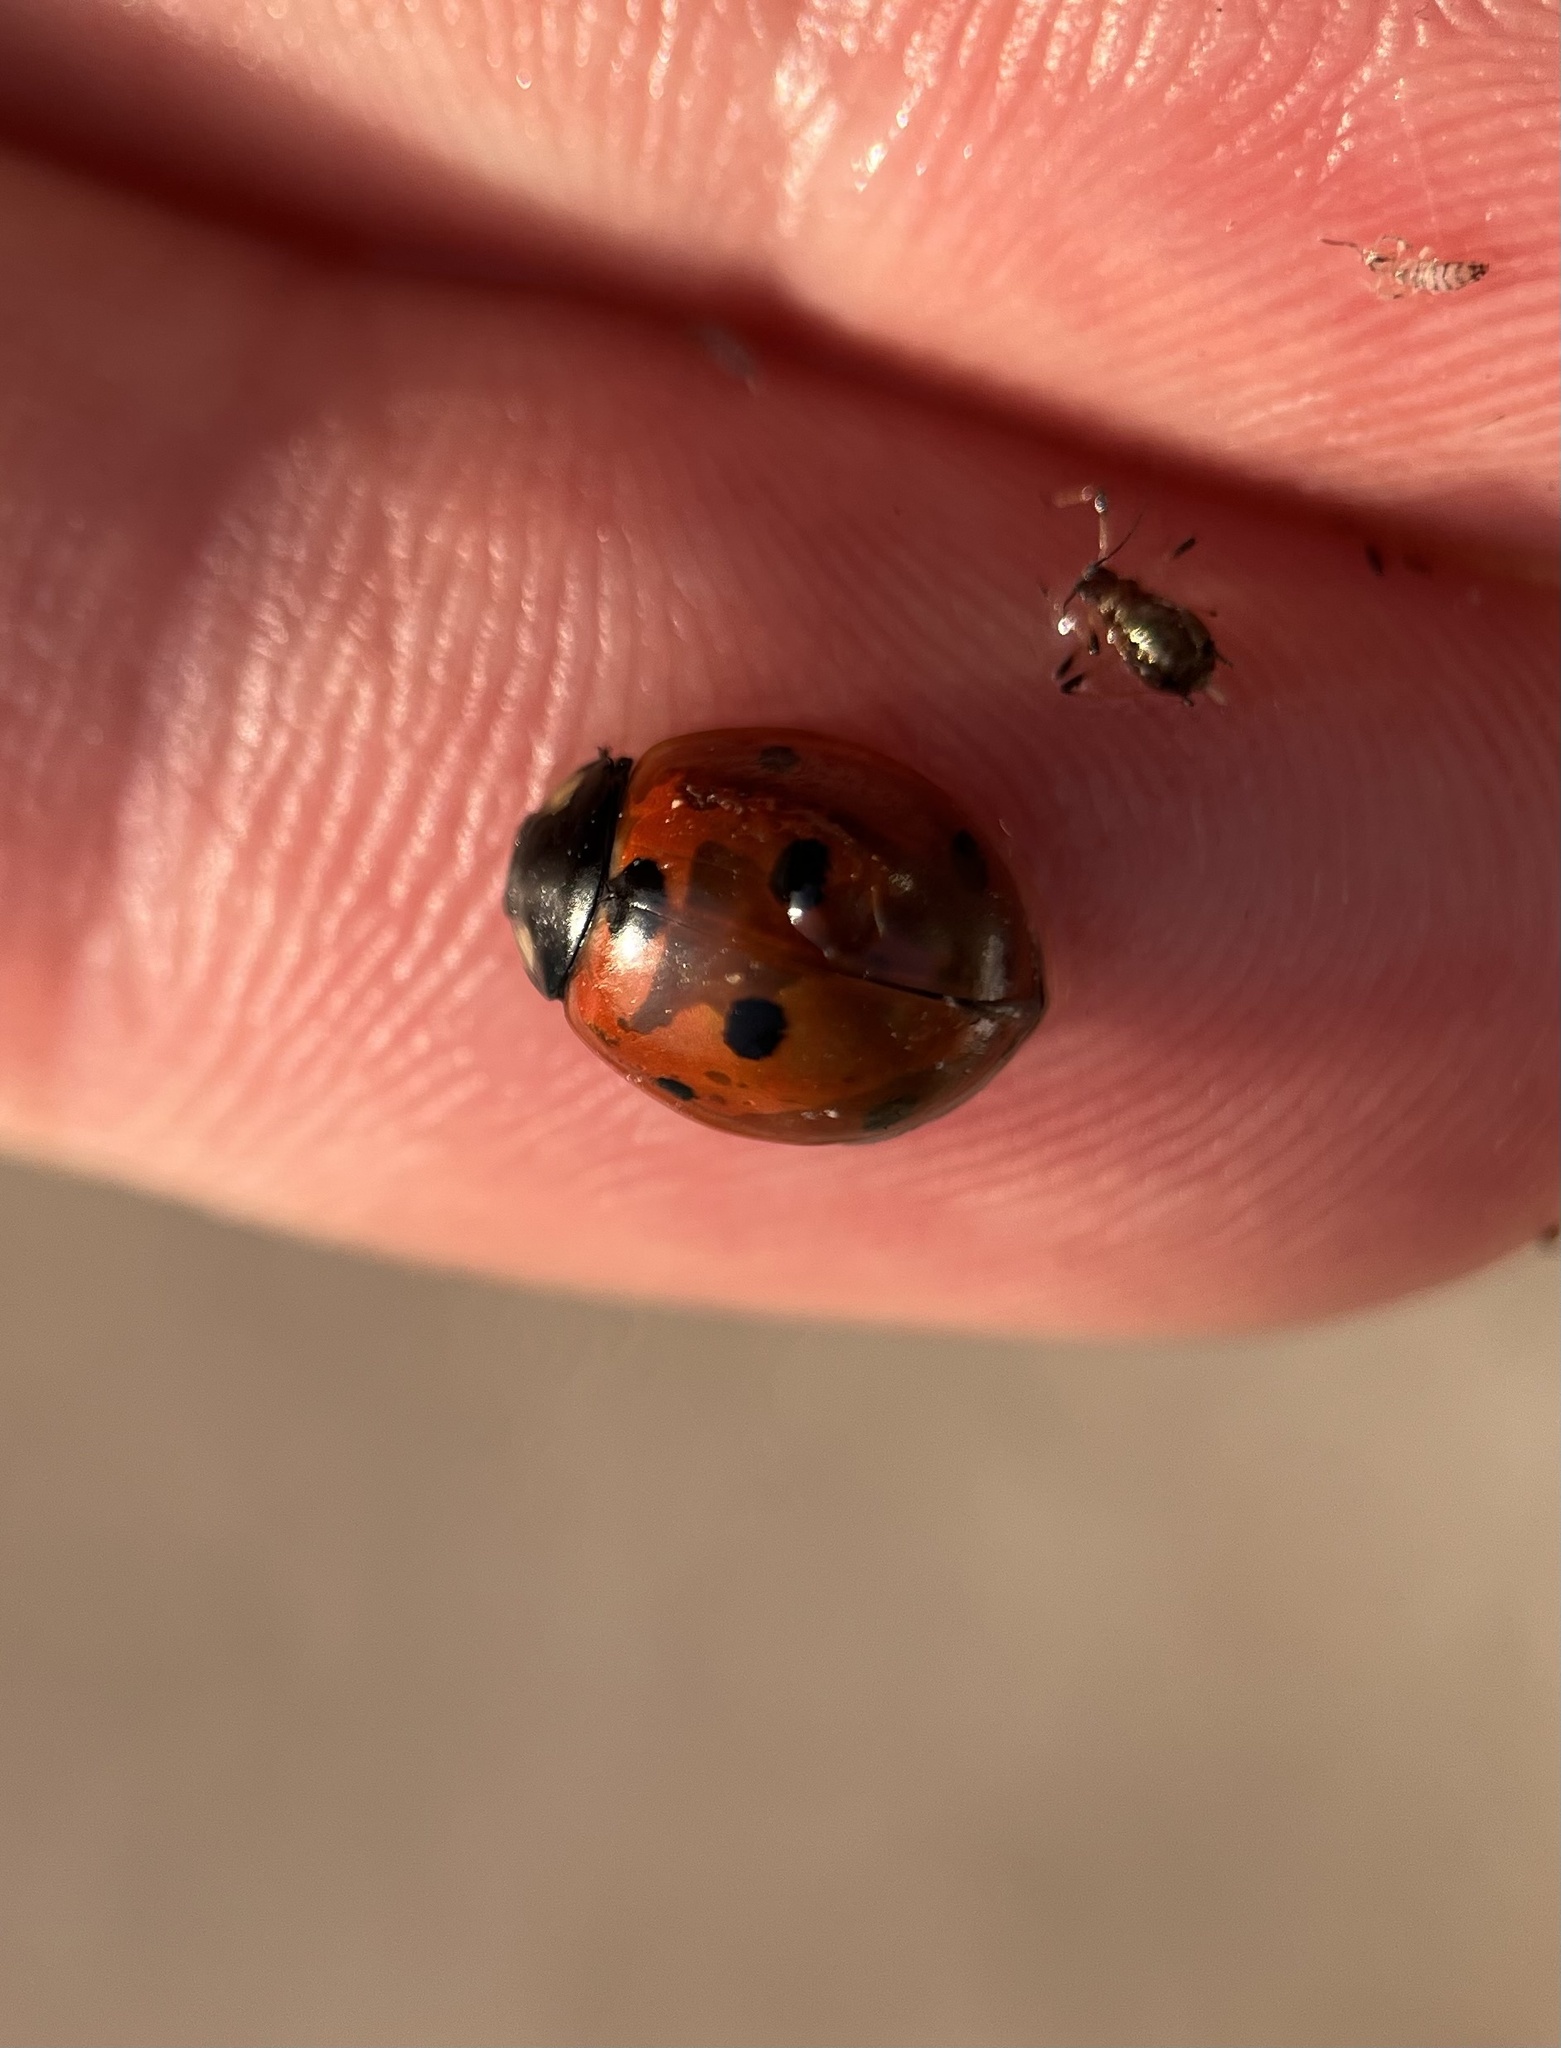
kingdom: Animalia
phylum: Arthropoda
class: Insecta
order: Coleoptera
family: Coccinellidae
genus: Coccinella
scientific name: Coccinella septempunctata
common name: Sevenspotted lady beetle
